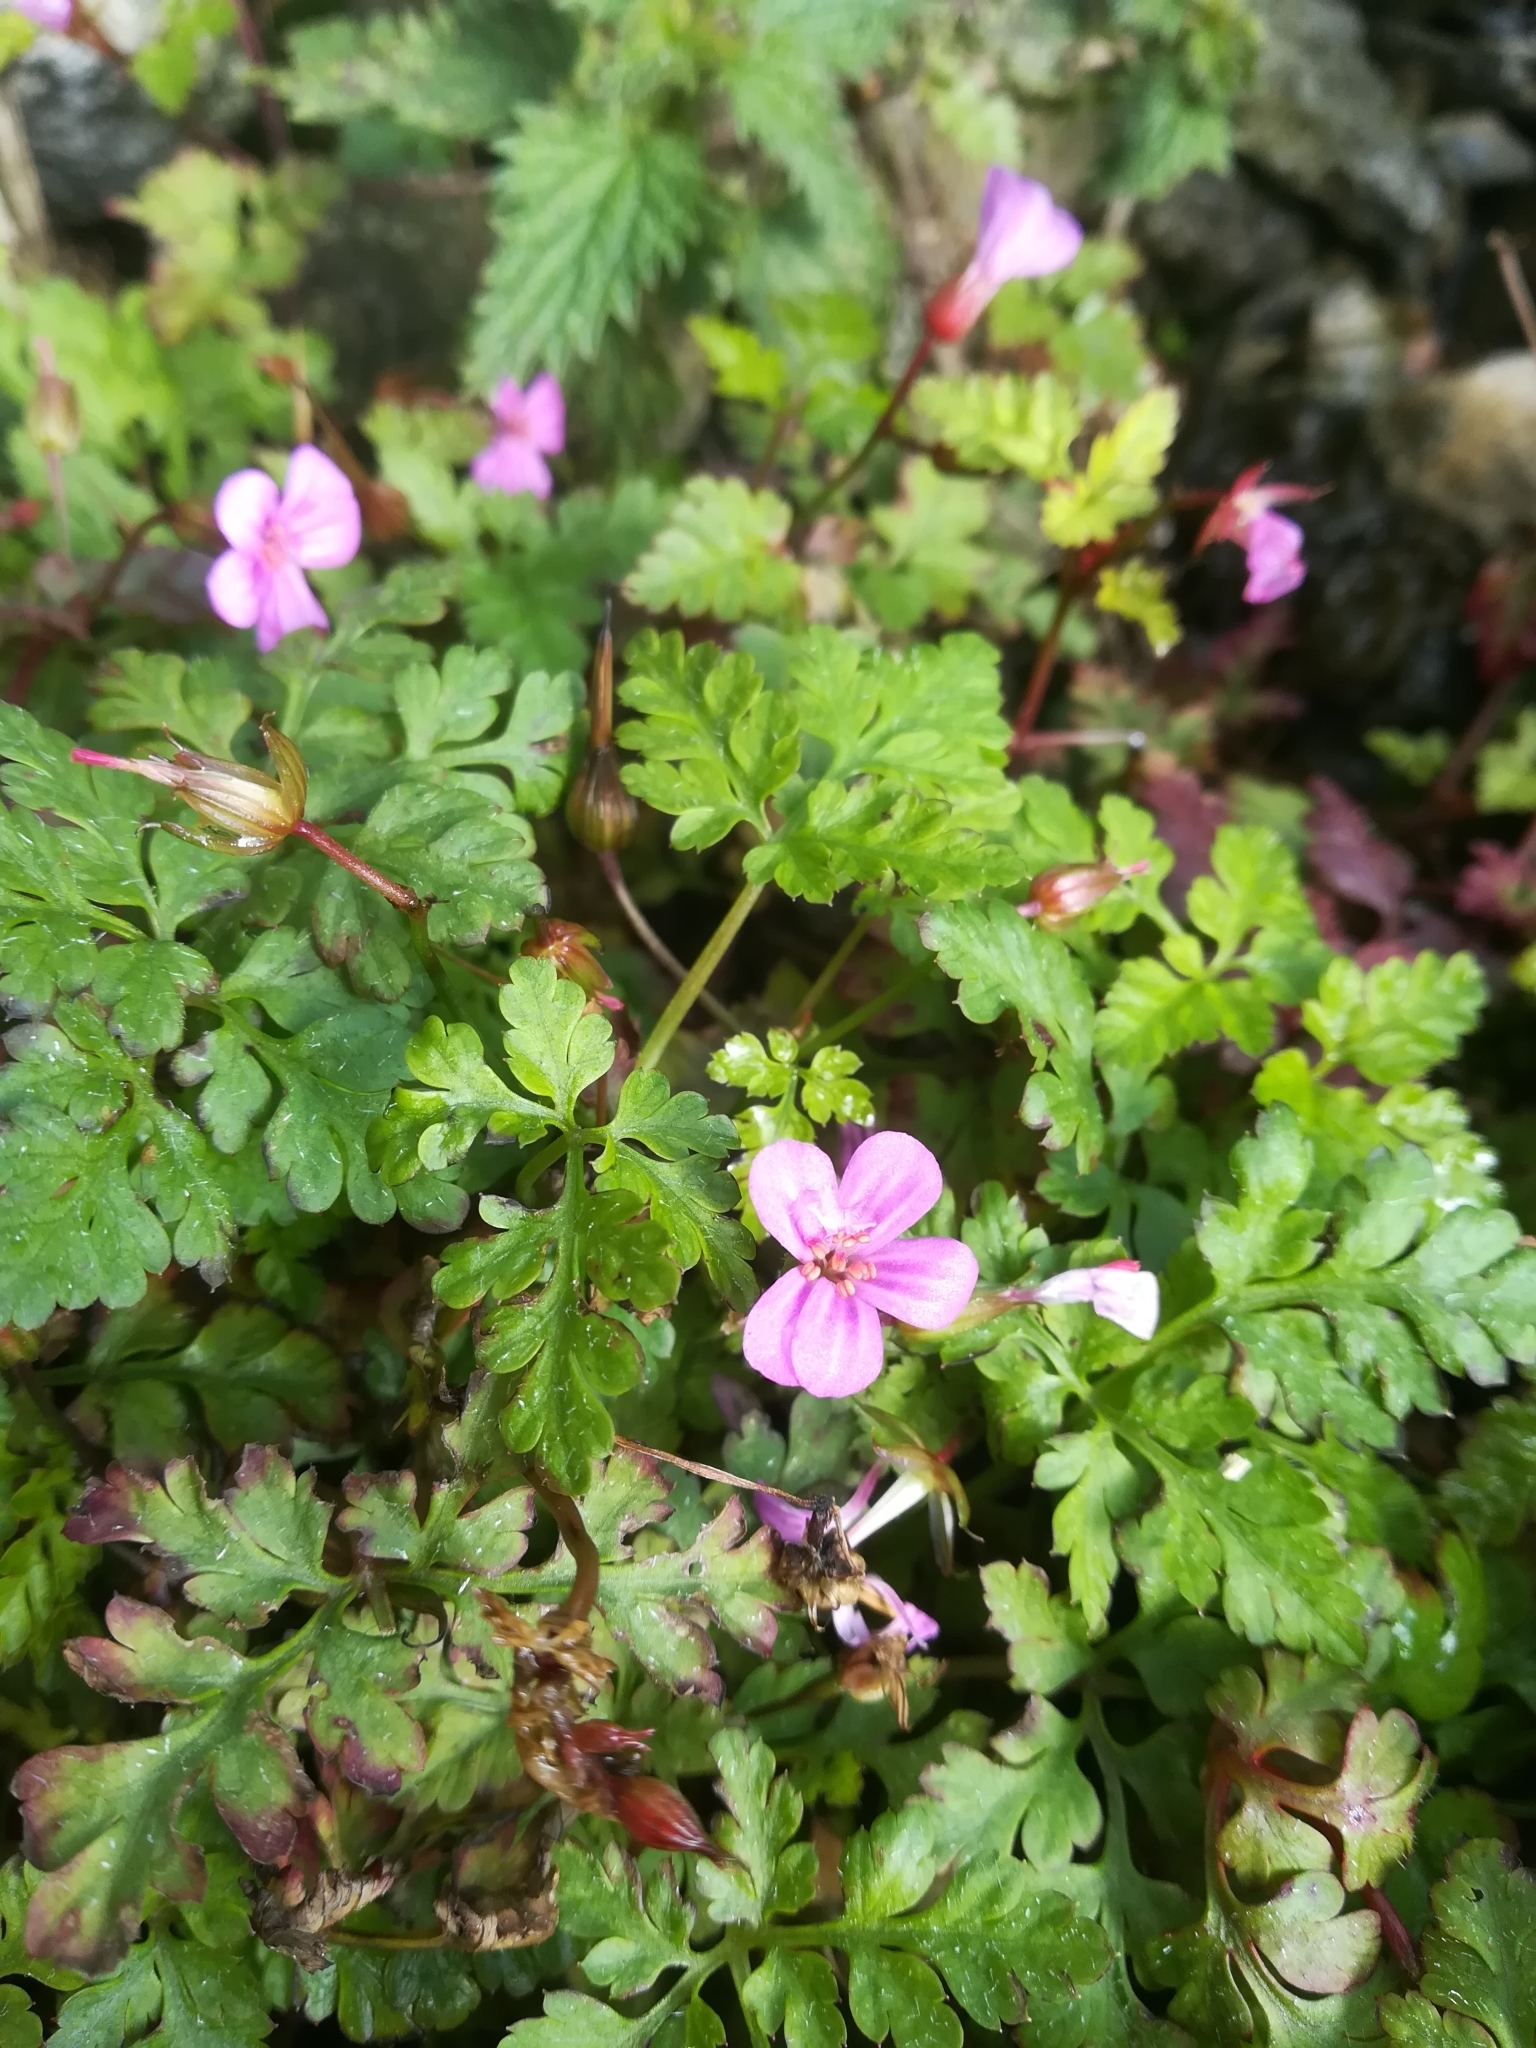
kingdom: Plantae
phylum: Tracheophyta
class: Magnoliopsida
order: Geraniales
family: Geraniaceae
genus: Geranium
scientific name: Geranium robertianum
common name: Herb-robert
